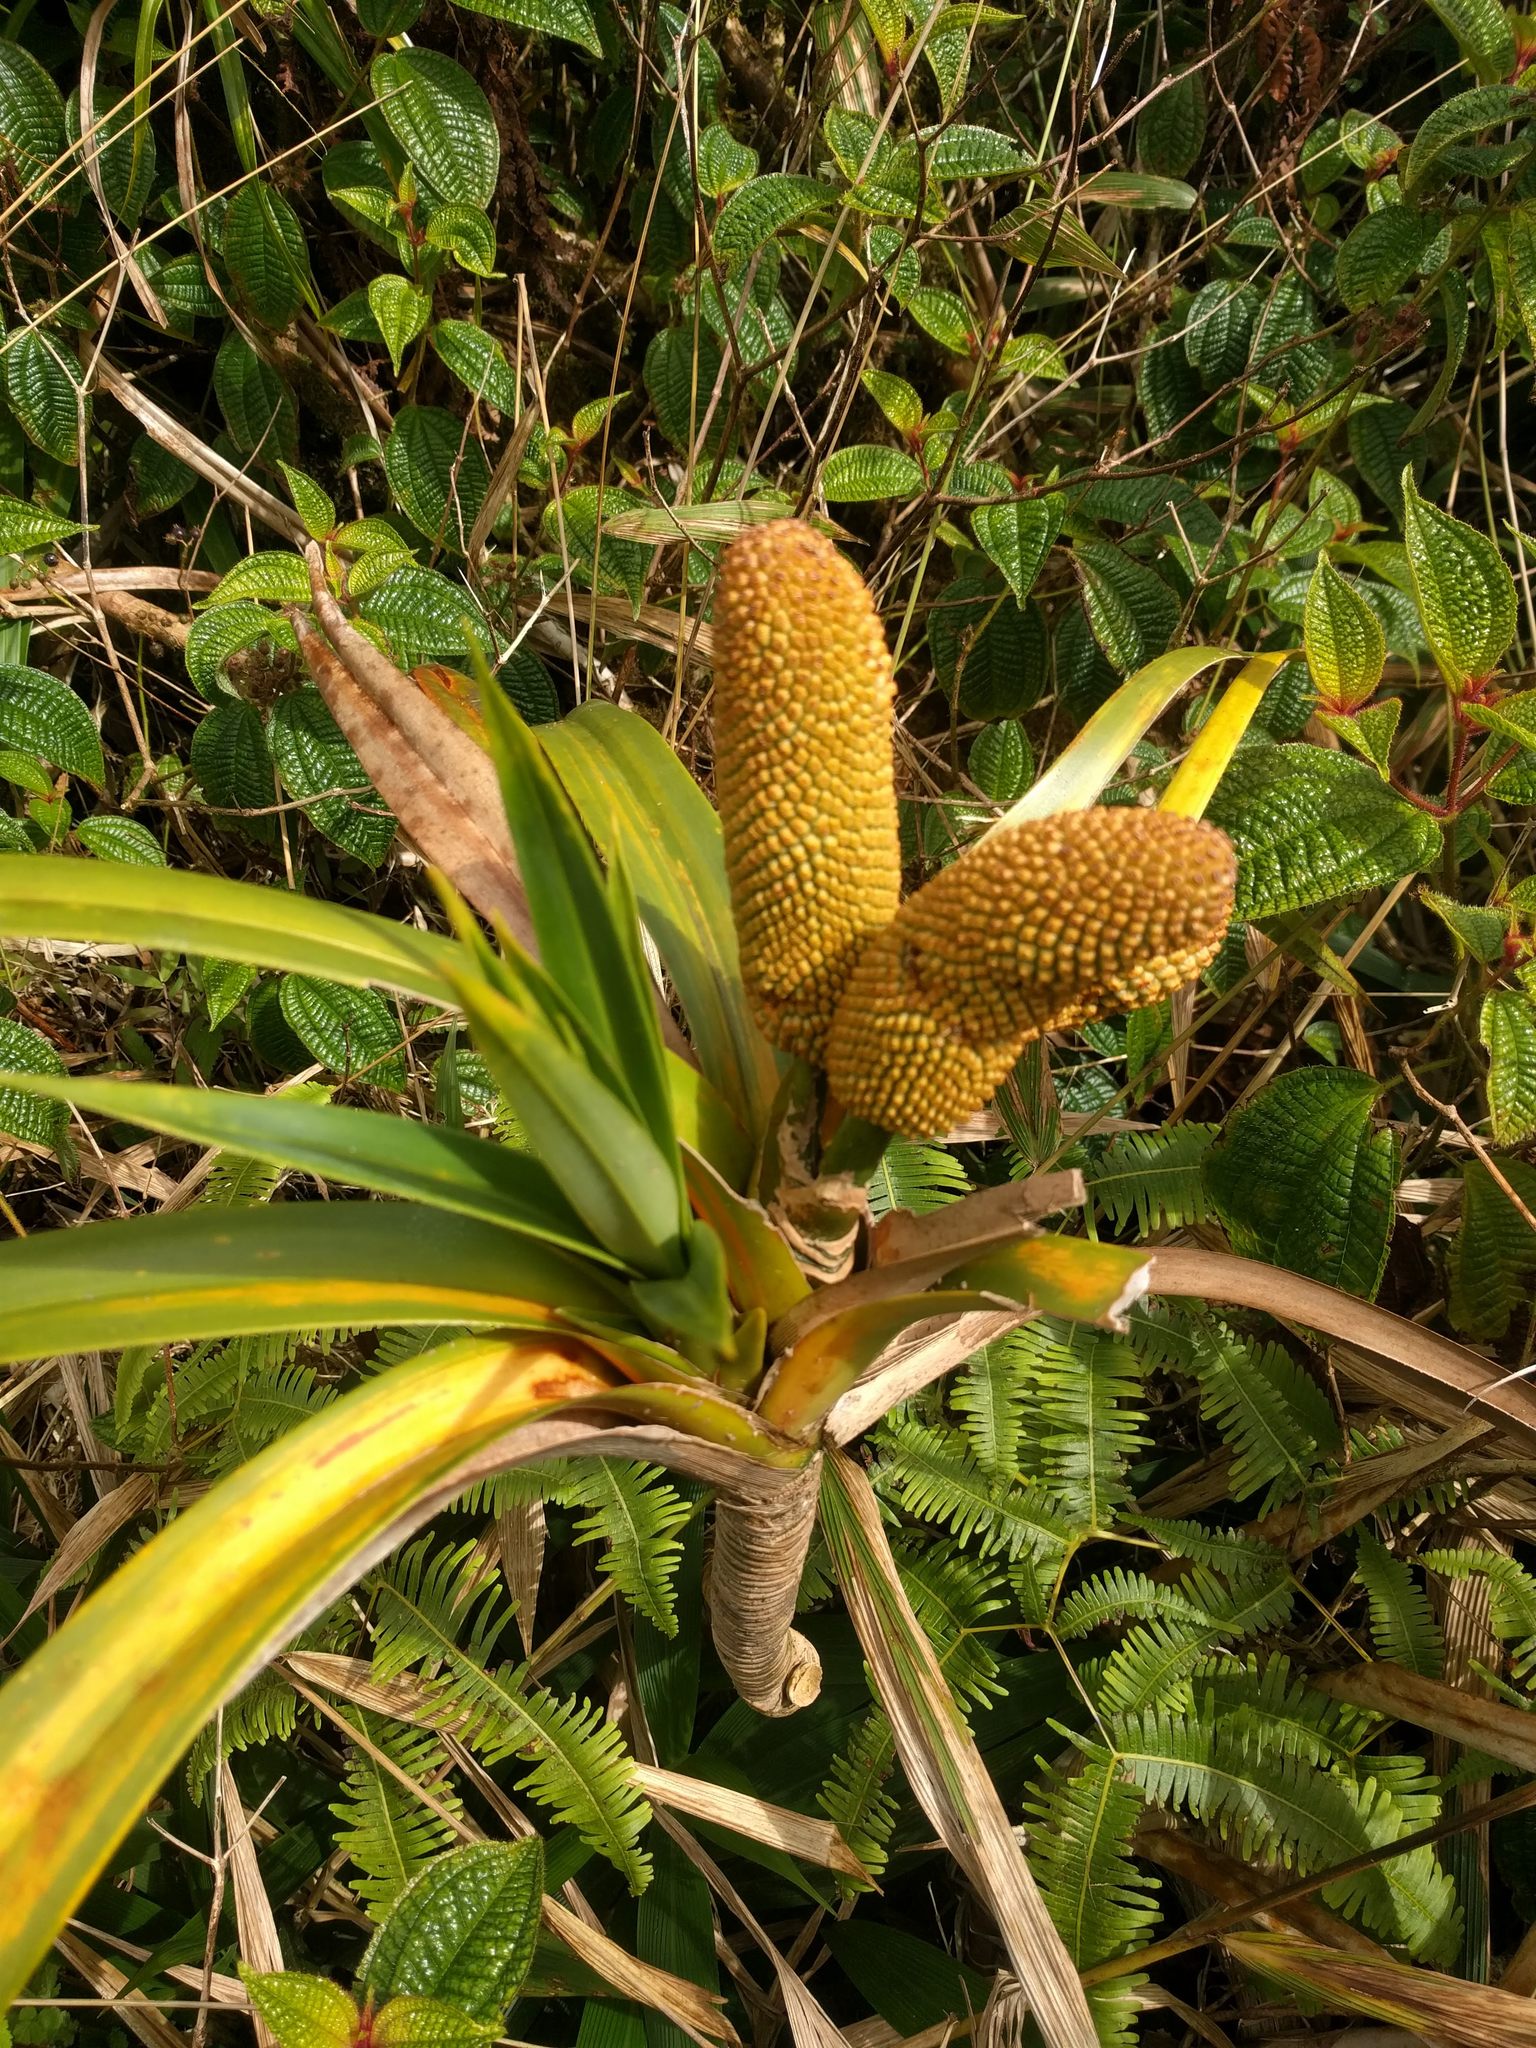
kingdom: Plantae
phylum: Tracheophyta
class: Liliopsida
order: Pandanales
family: Pandanaceae
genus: Freycinetia
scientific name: Freycinetia arborea
